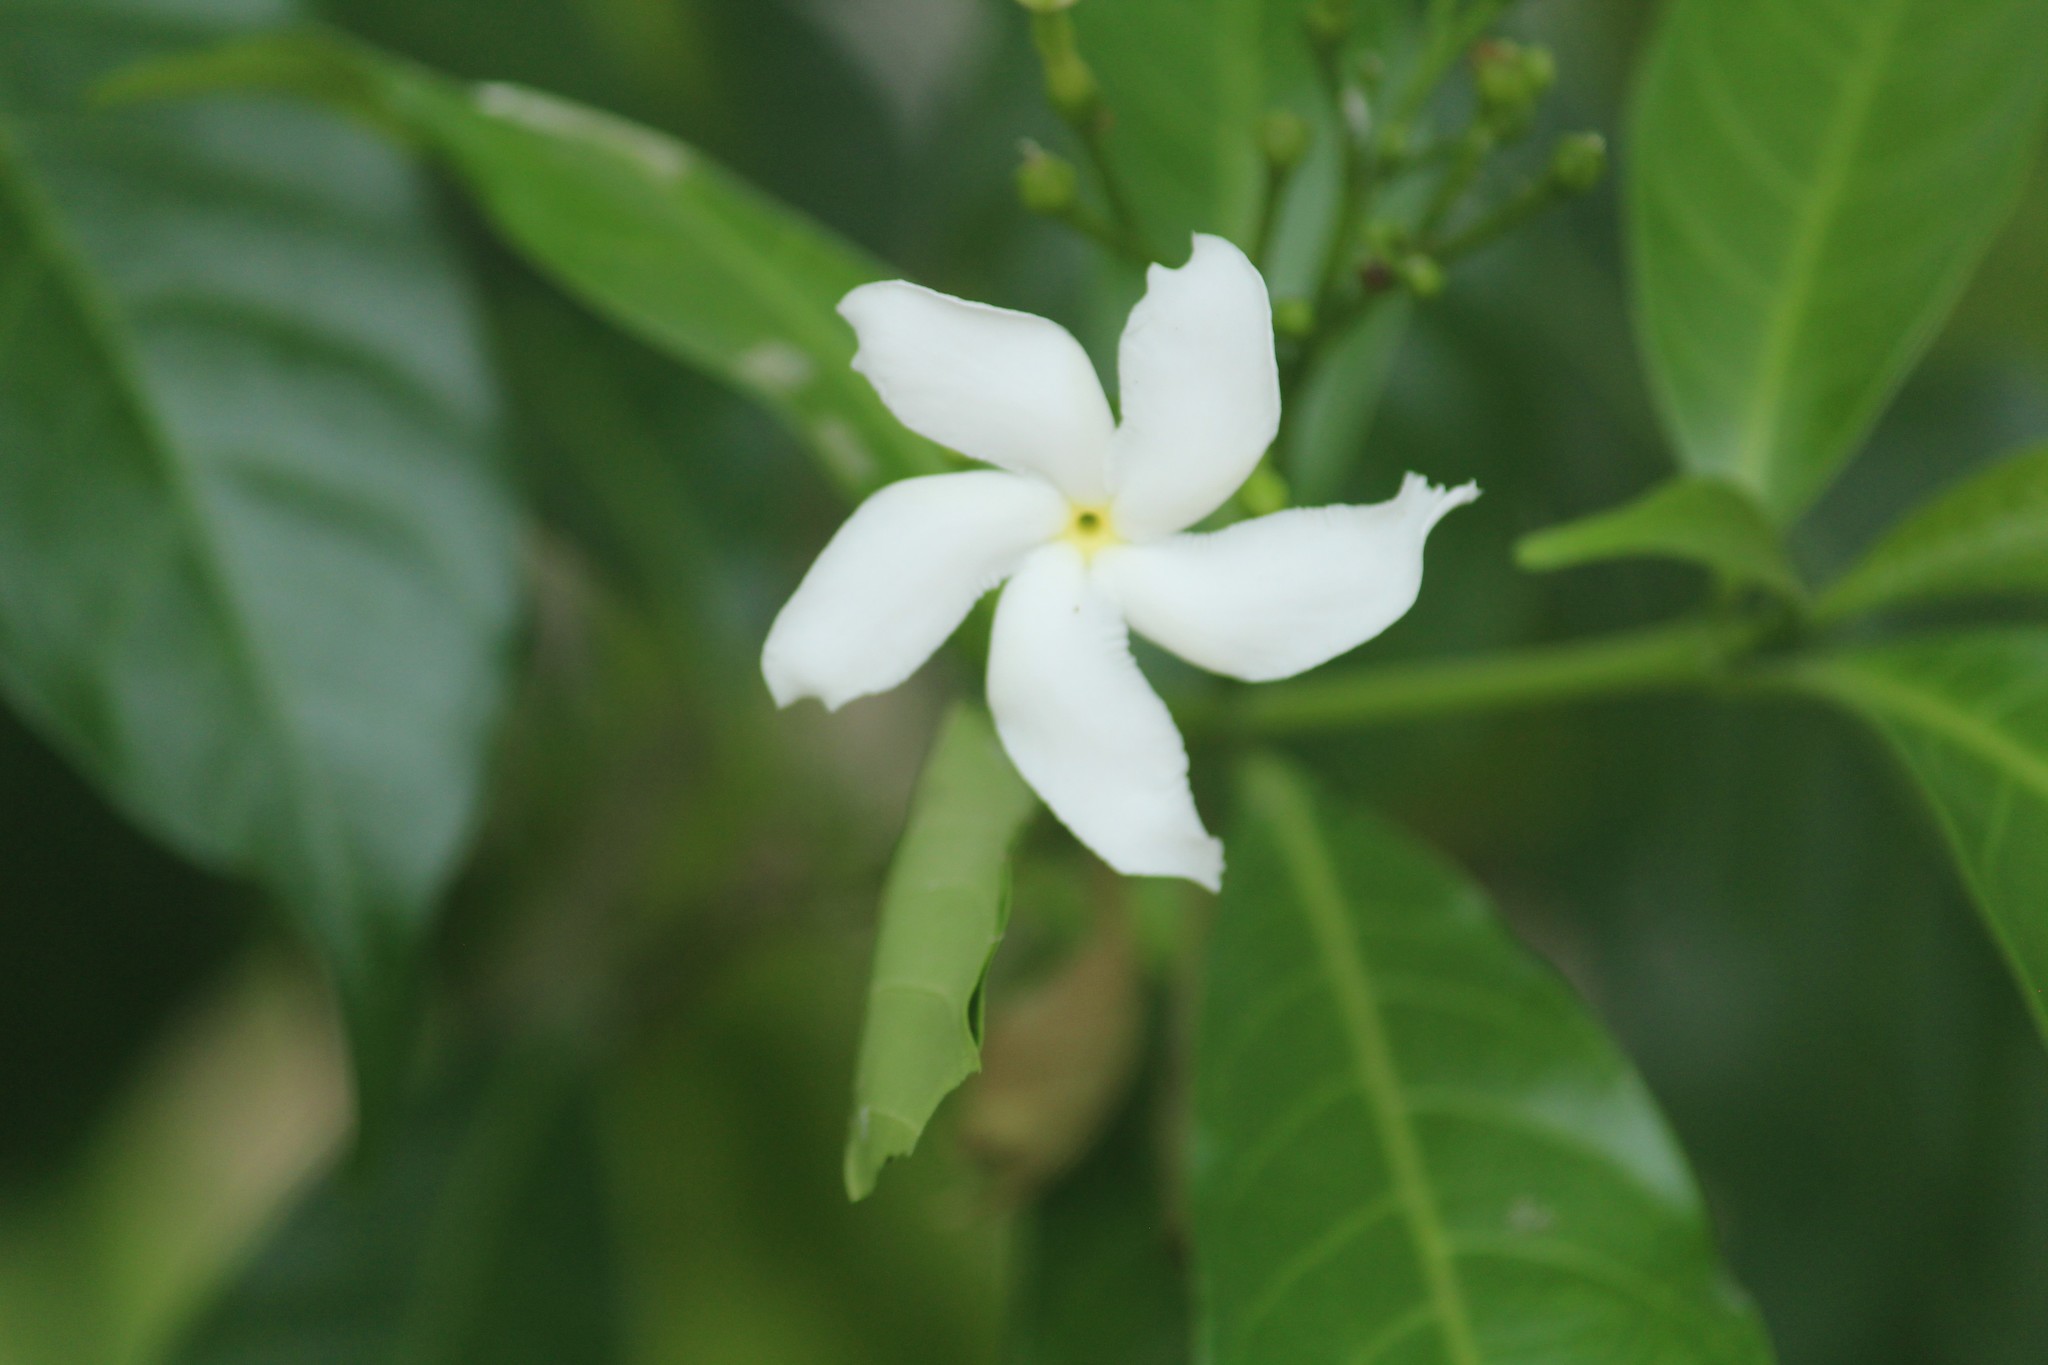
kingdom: Plantae
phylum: Tracheophyta
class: Magnoliopsida
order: Gentianales
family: Apocynaceae
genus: Tabernaemontana
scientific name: Tabernaemontana divaricata
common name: Pinwheelflower
